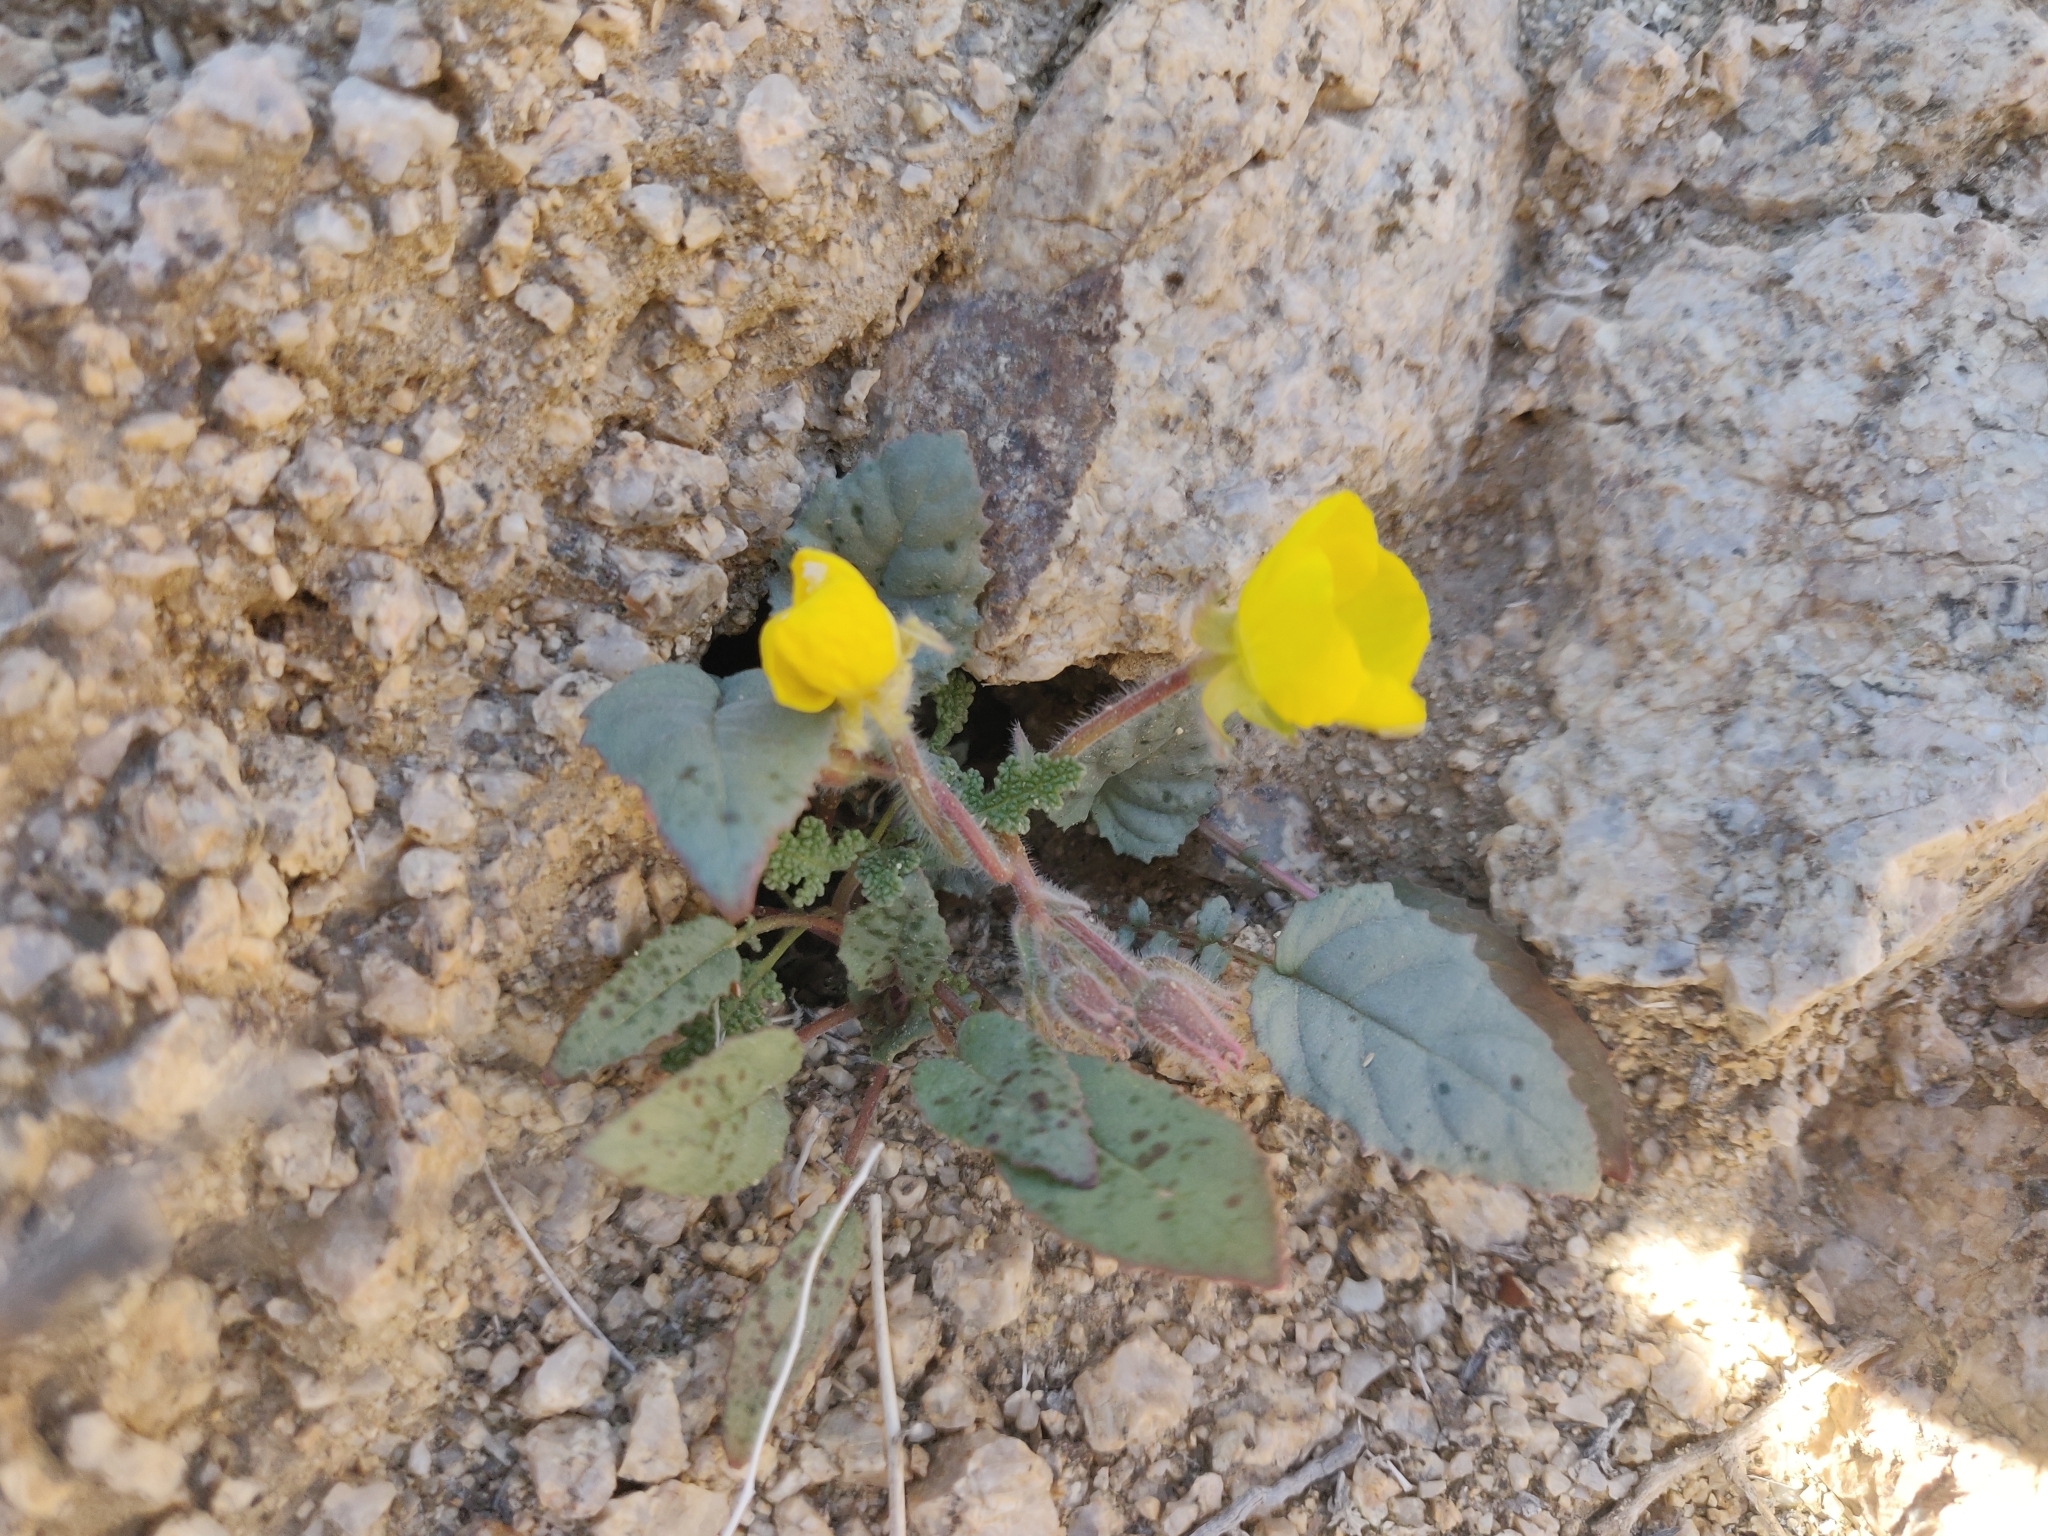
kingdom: Plantae
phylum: Tracheophyta
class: Magnoliopsida
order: Myrtales
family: Onagraceae
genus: Chylismia
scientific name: Chylismia brevipes
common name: Yellow cups
